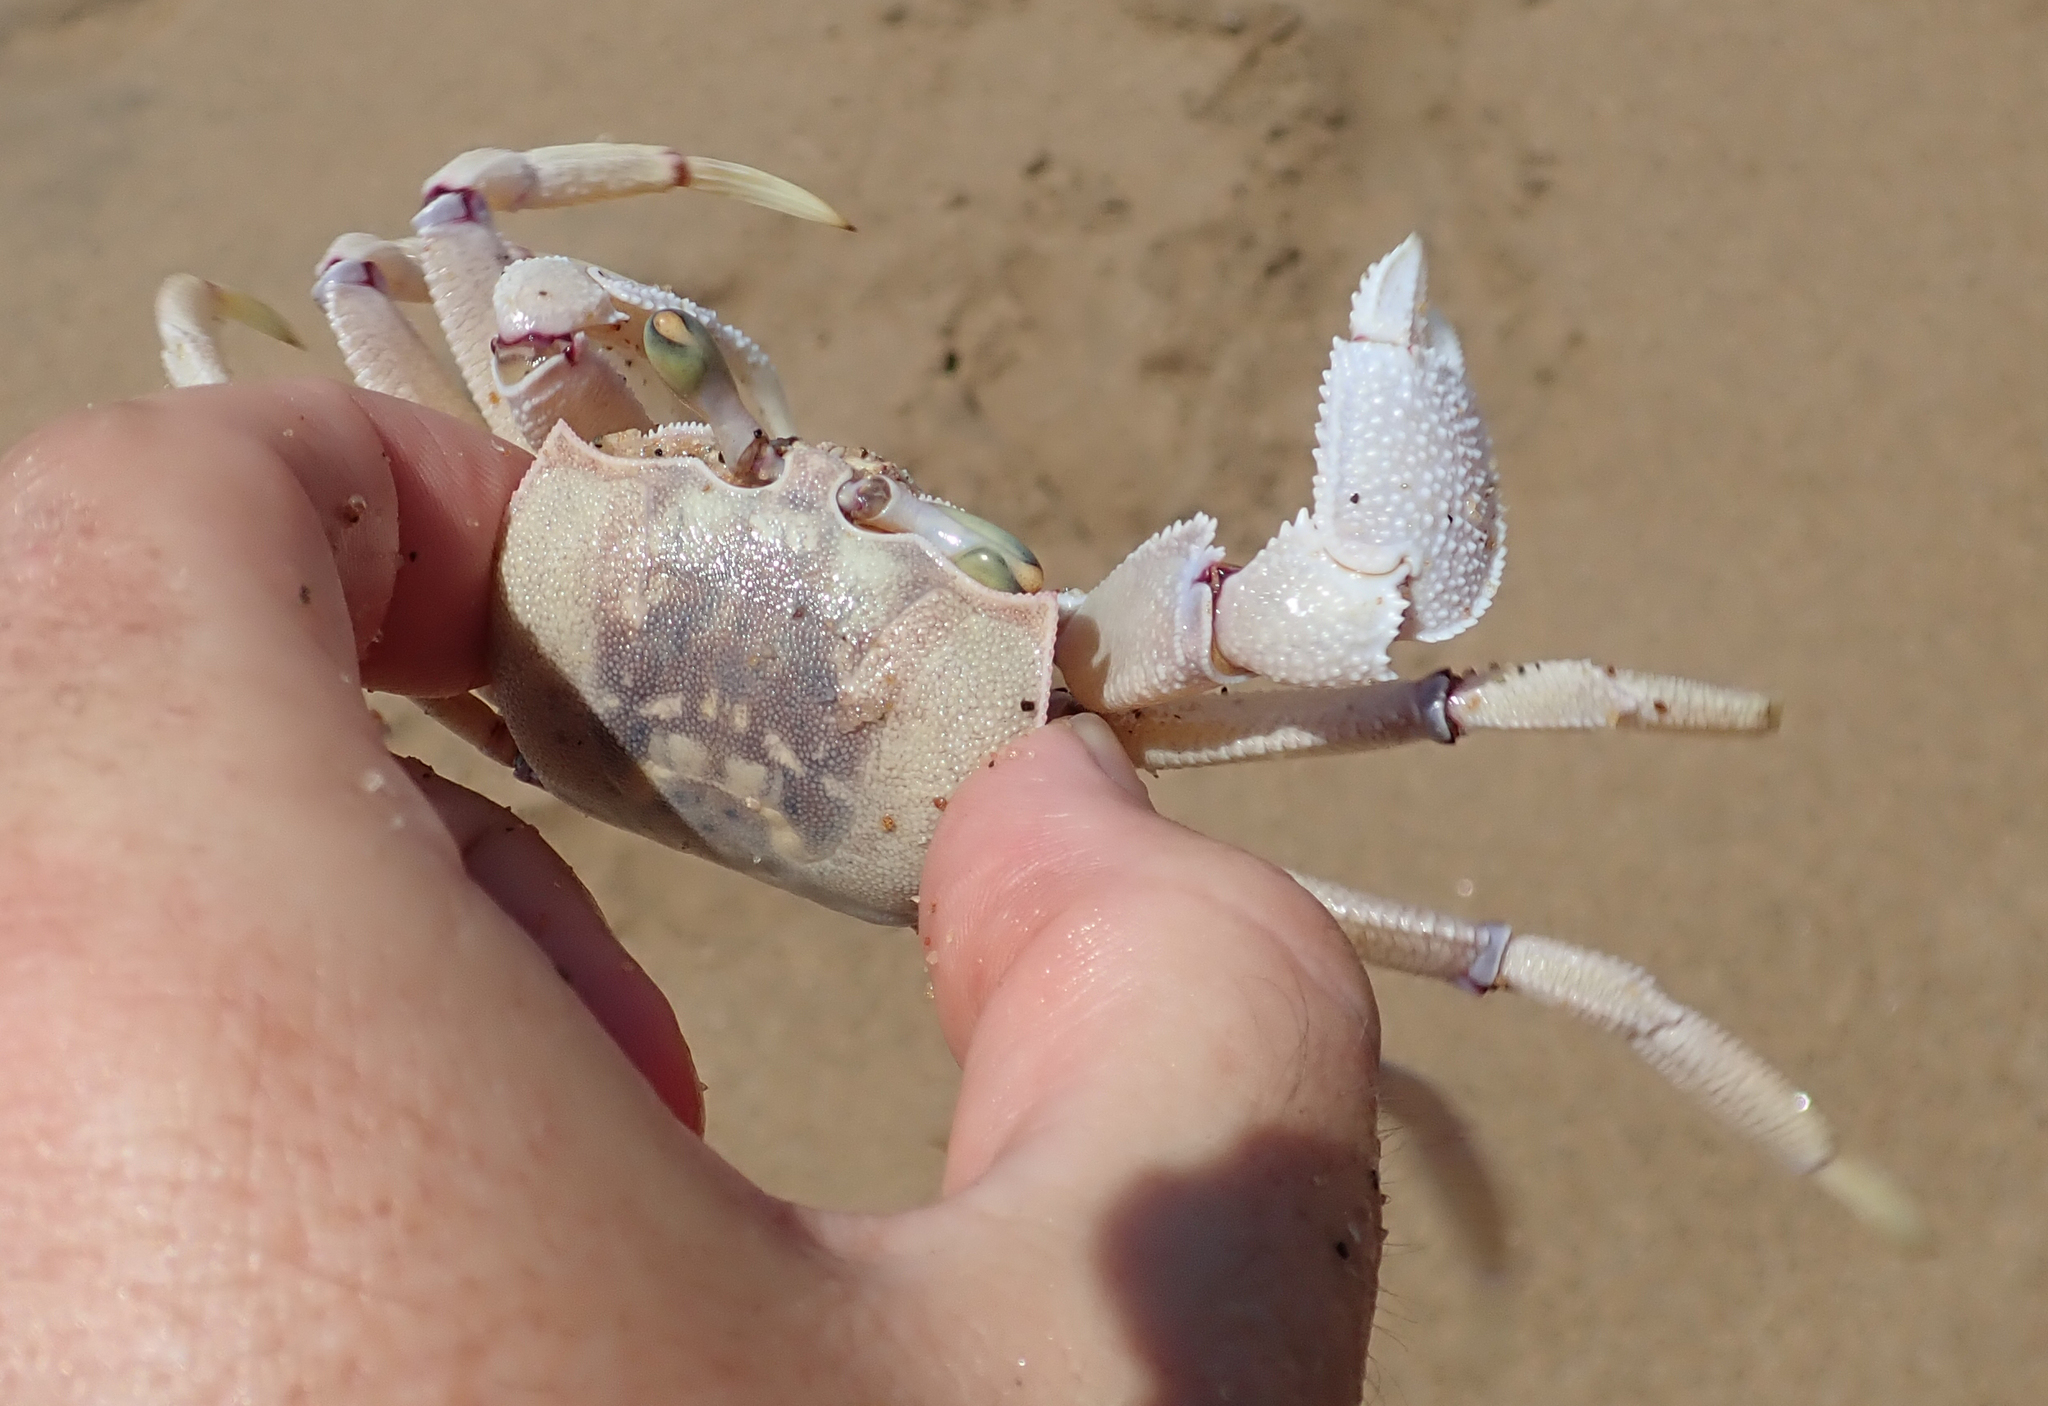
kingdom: Animalia
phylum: Arthropoda
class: Malacostraca
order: Decapoda
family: Ocypodidae
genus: Ocypode
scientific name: Ocypode ryderi
